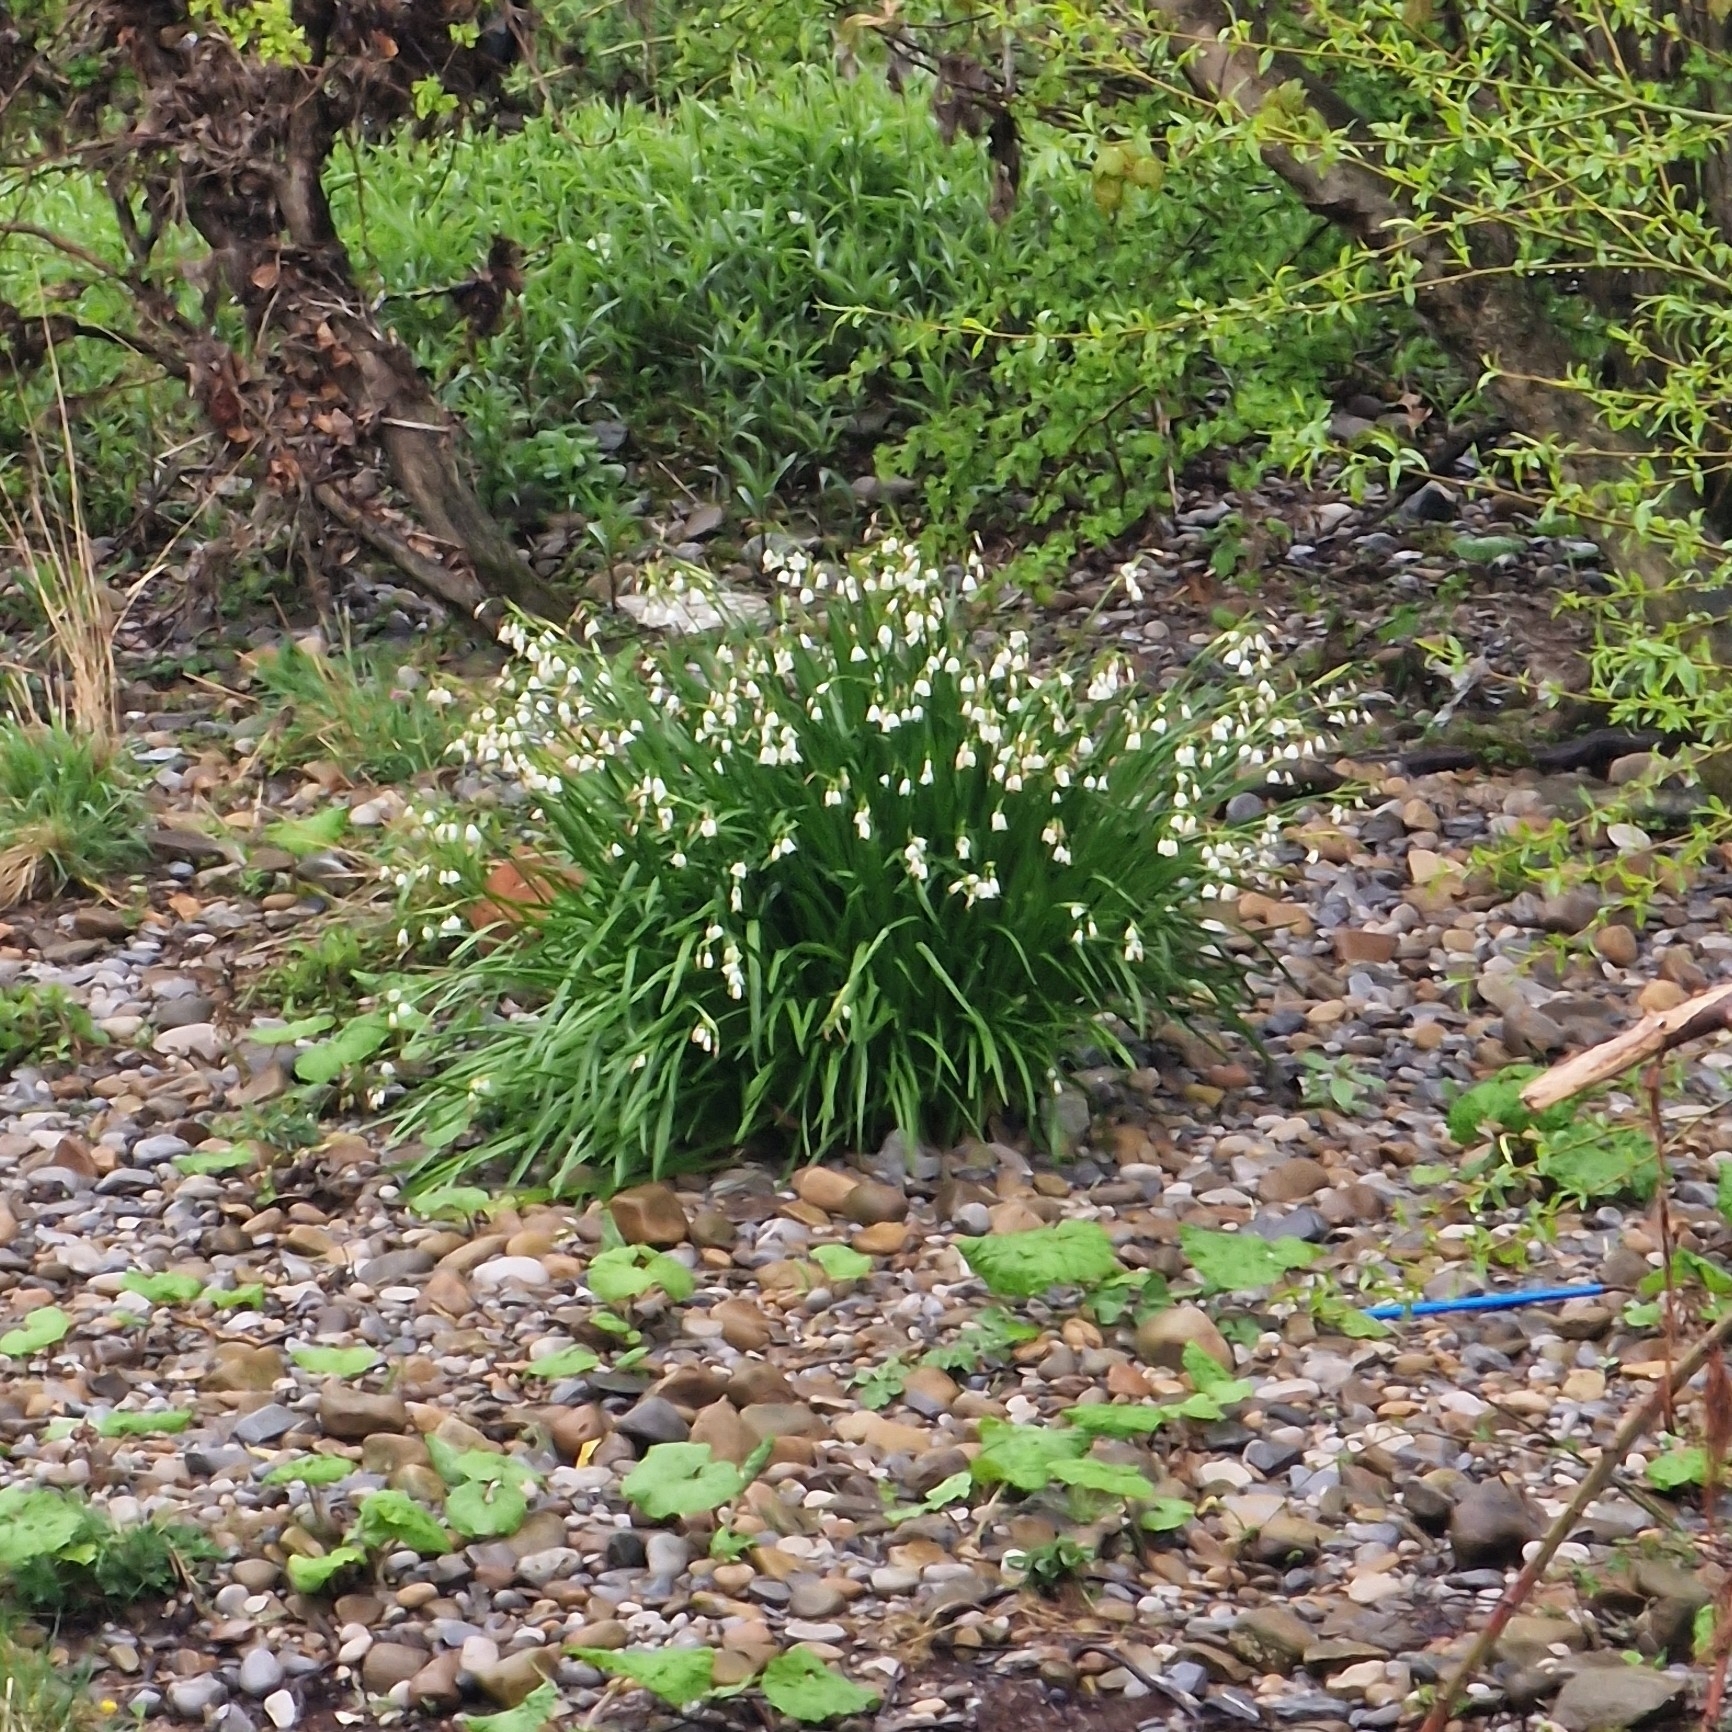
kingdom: Plantae
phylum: Tracheophyta
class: Liliopsida
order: Asparagales
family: Amaryllidaceae
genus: Leucojum
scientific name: Leucojum aestivum
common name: Summer snowflake
